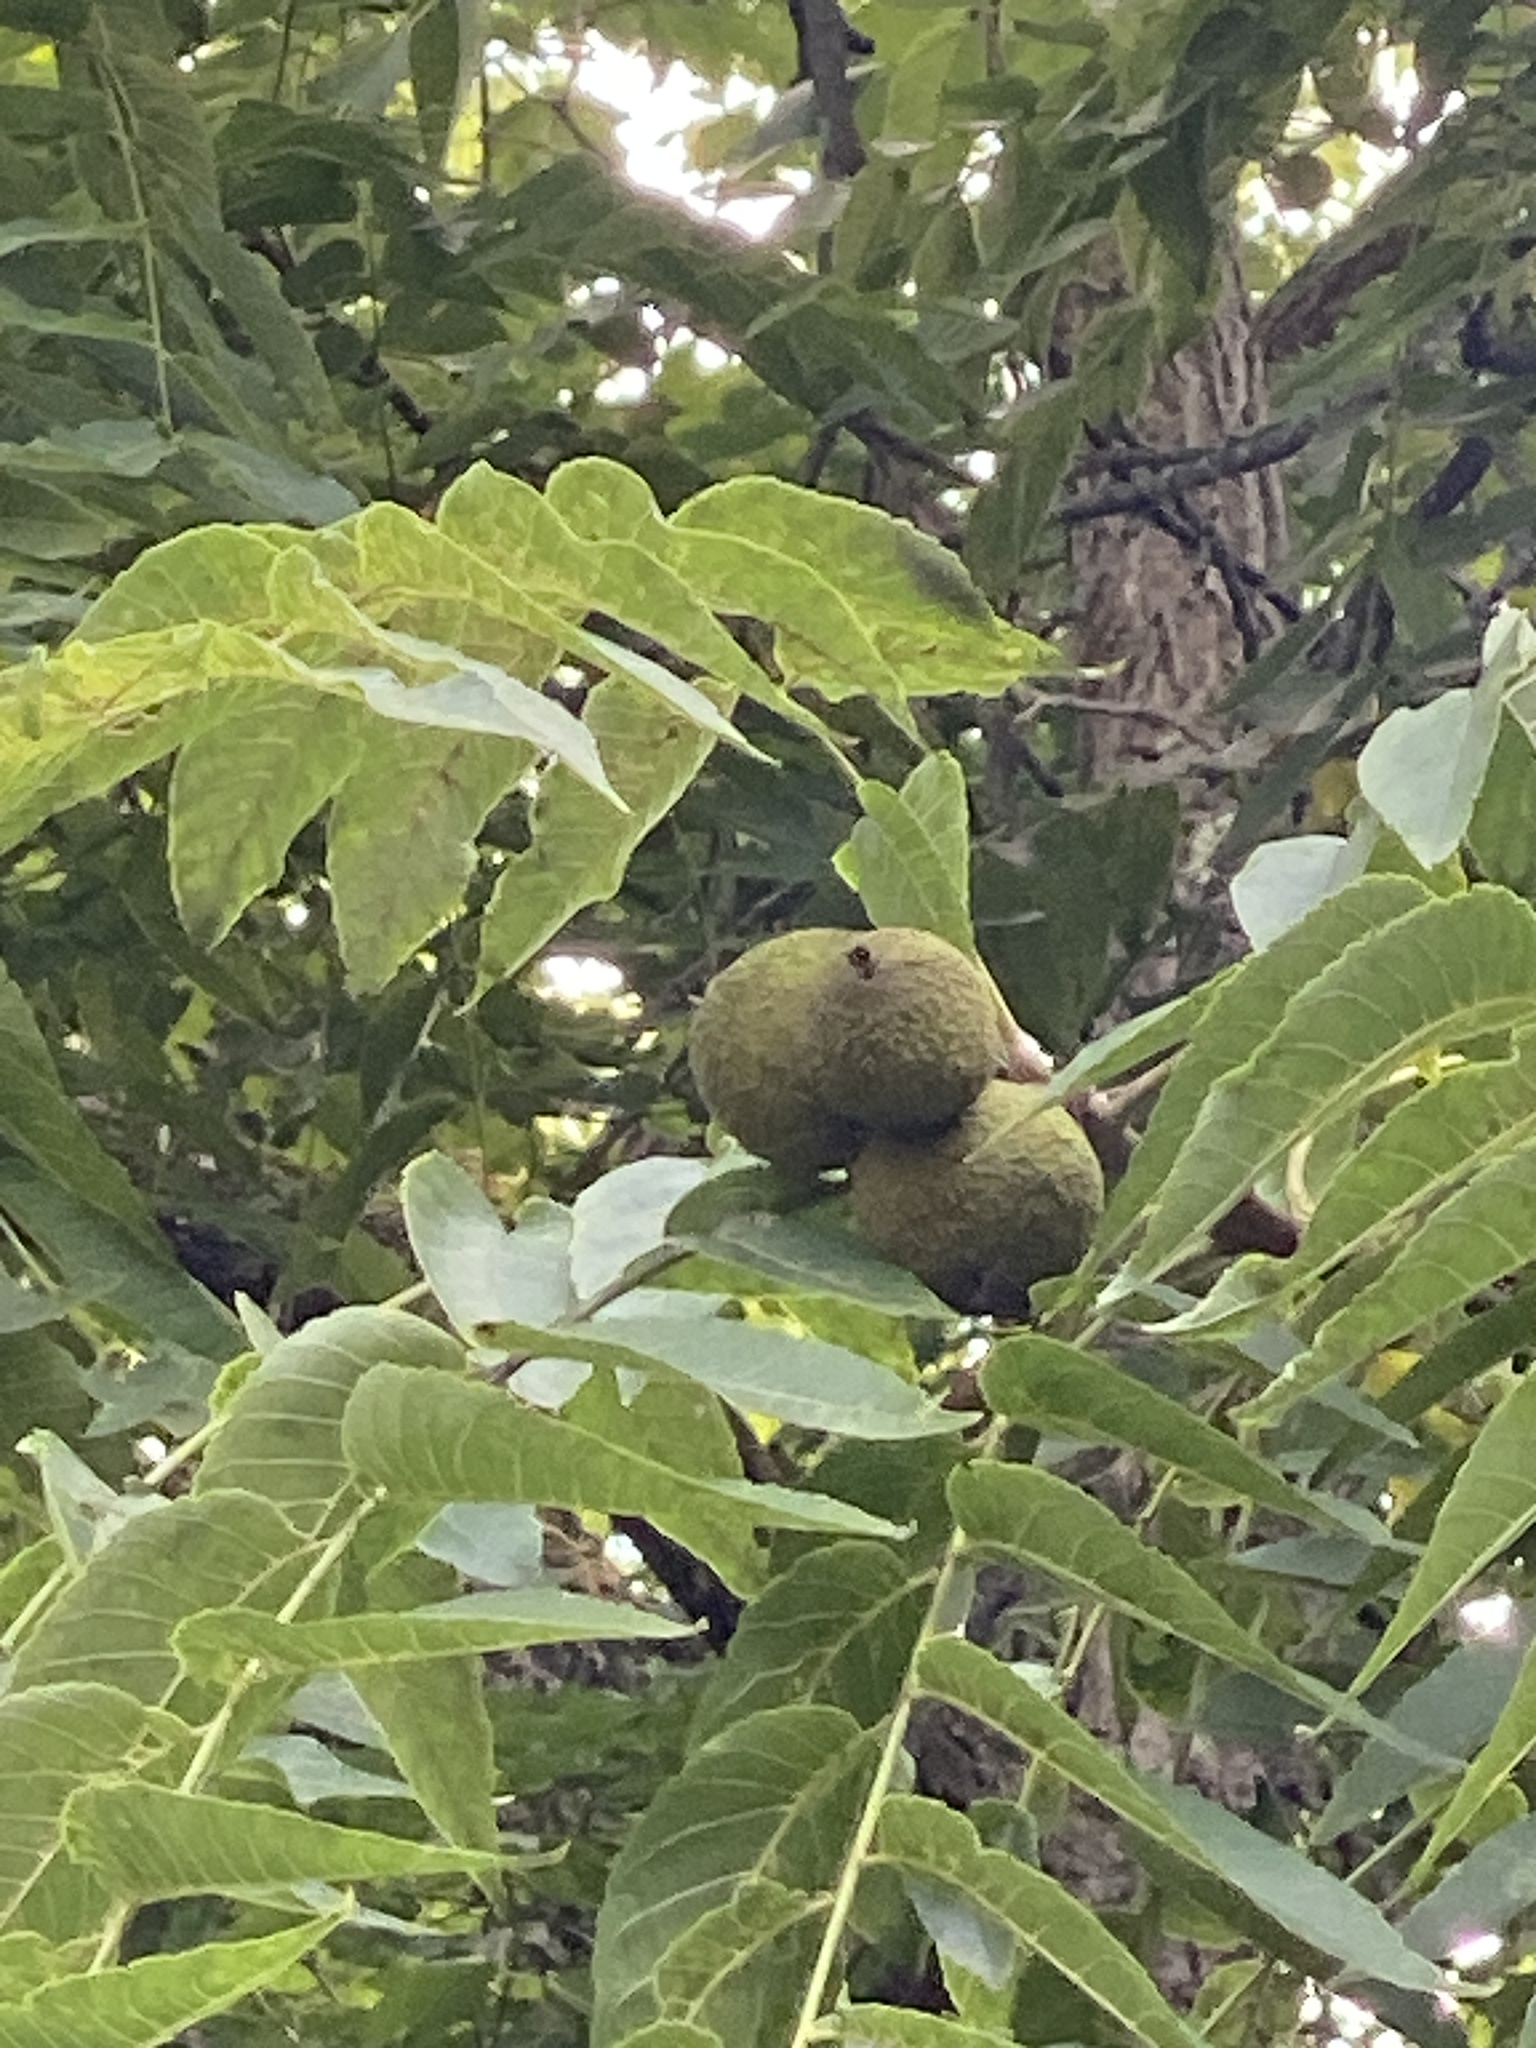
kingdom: Plantae
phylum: Tracheophyta
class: Magnoliopsida
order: Fagales
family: Juglandaceae
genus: Juglans
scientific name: Juglans nigra
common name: Black walnut
